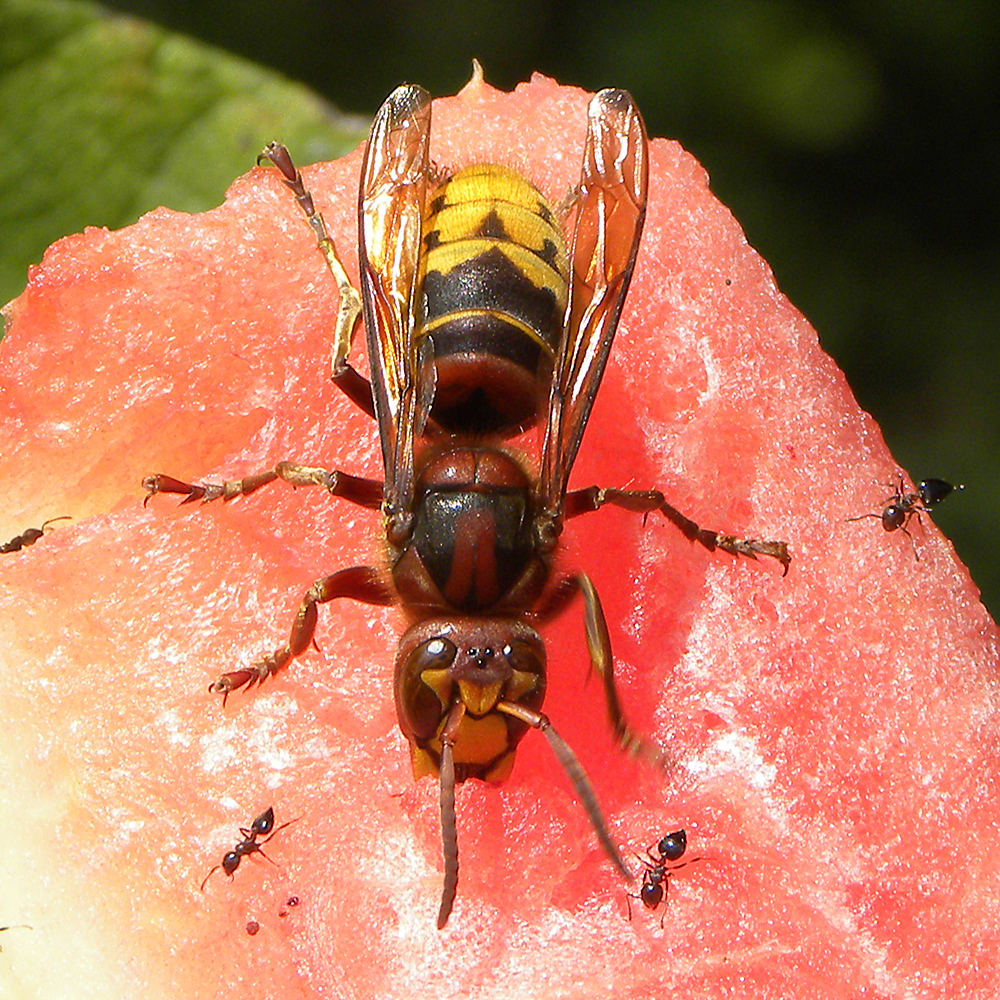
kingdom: Animalia
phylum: Arthropoda
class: Insecta
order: Hymenoptera
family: Vespidae
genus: Vespa
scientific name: Vespa crabro
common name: Hornet
